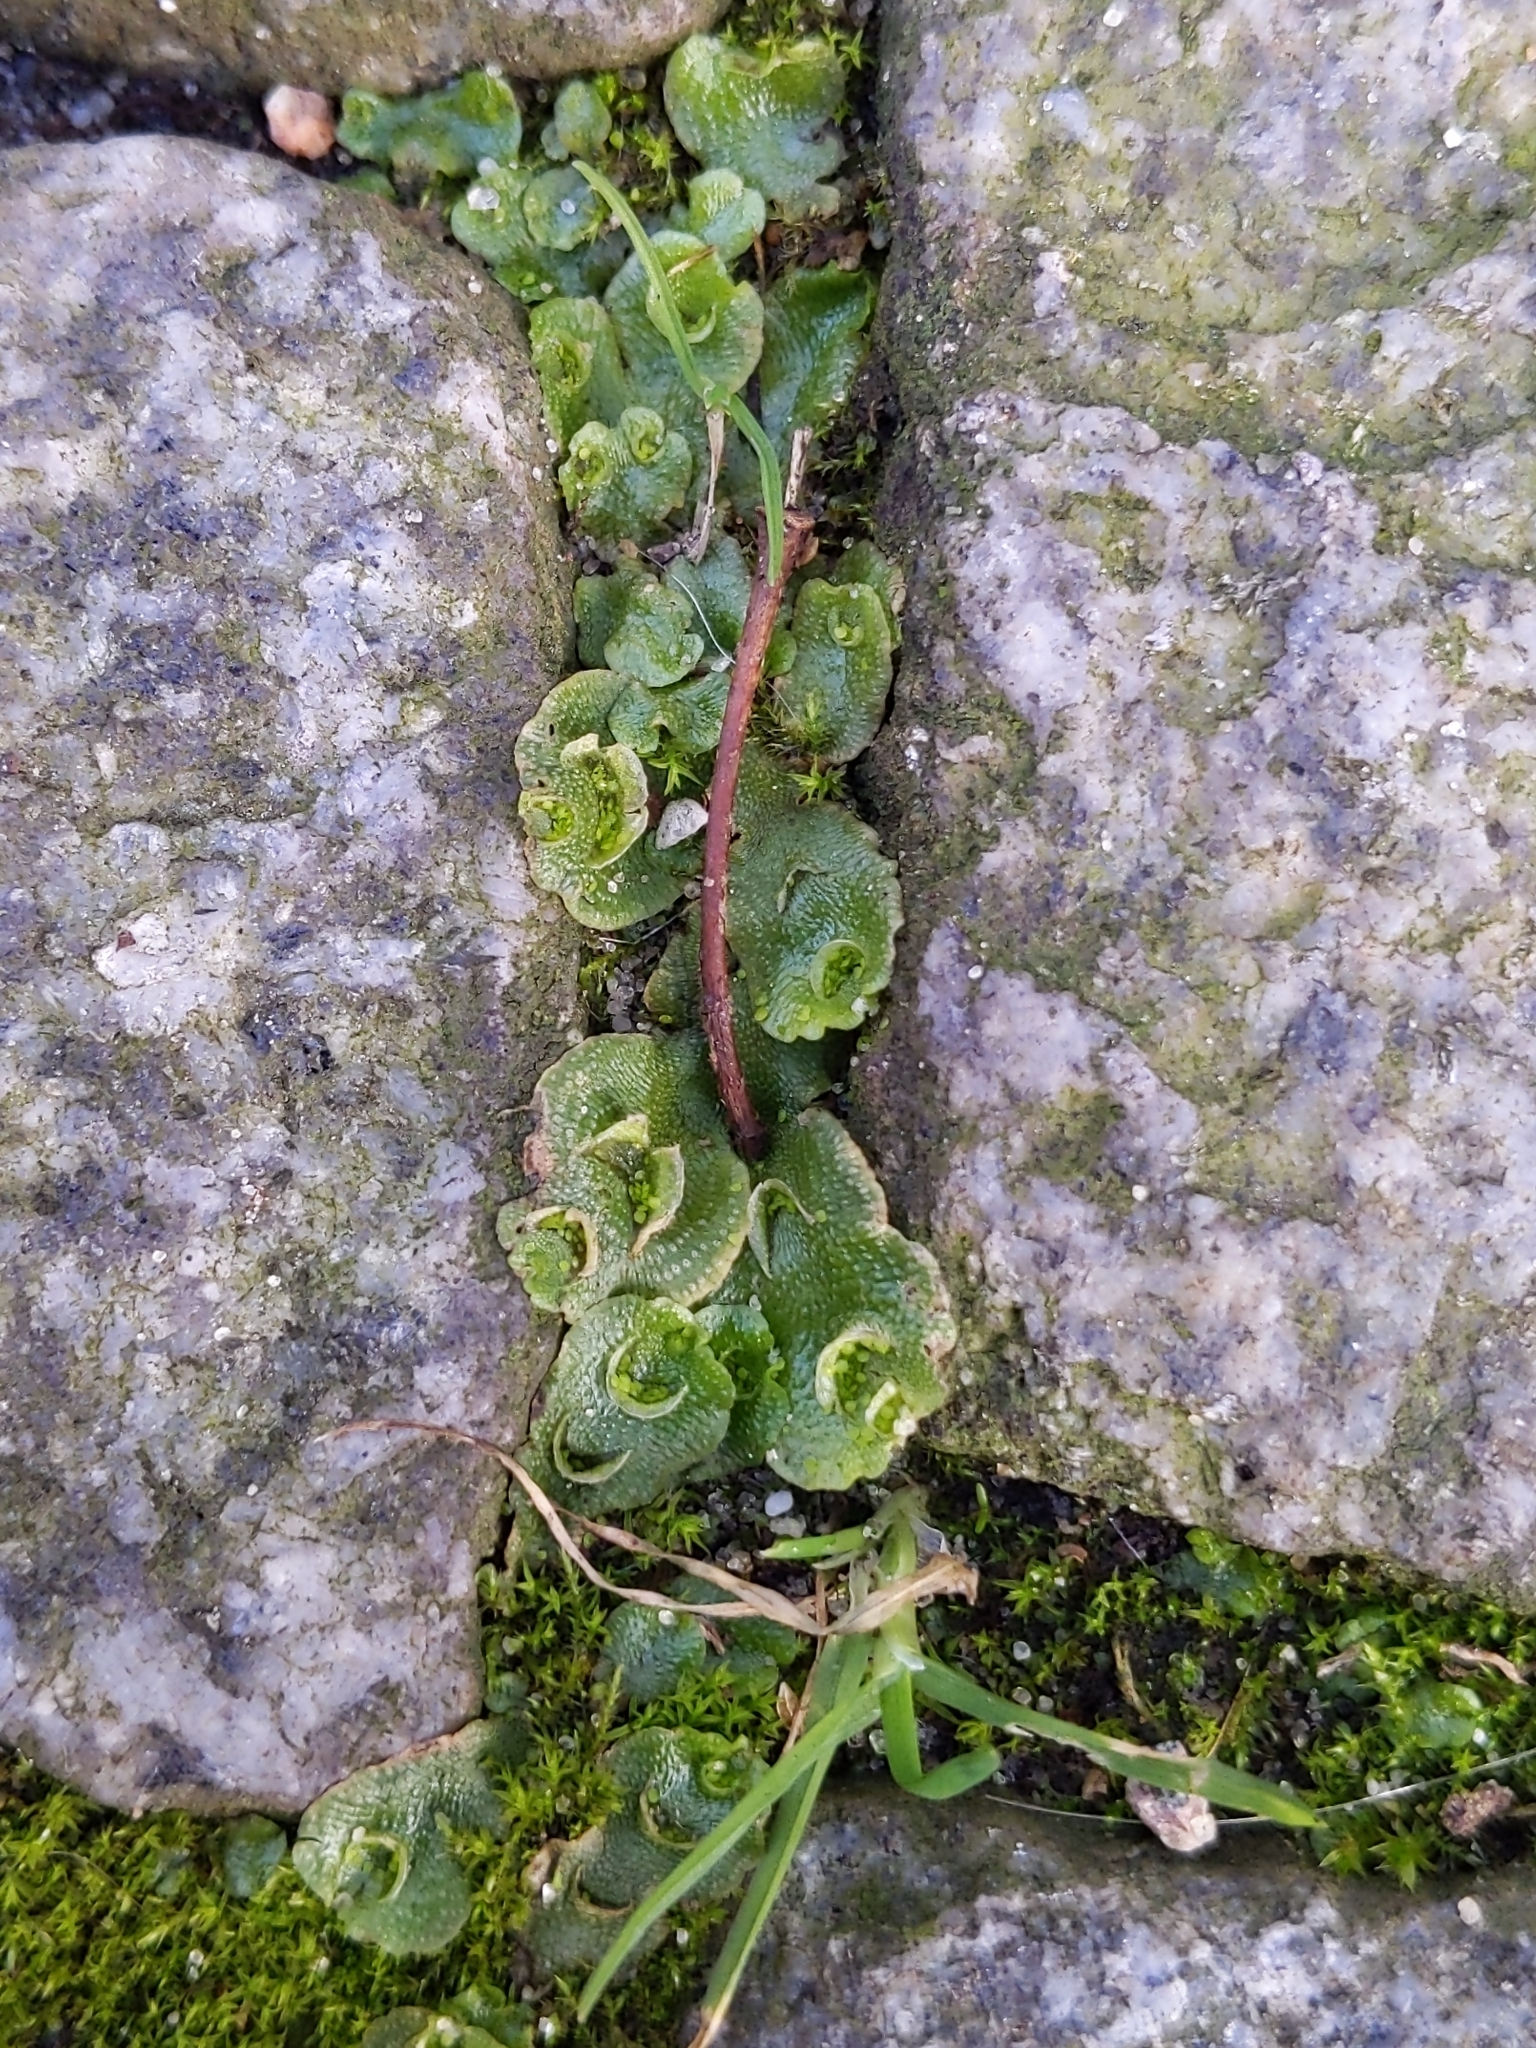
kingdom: Plantae
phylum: Marchantiophyta
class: Marchantiopsida
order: Lunulariales
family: Lunulariaceae
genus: Lunularia
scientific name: Lunularia cruciata
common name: Crescent-cup liverwort
